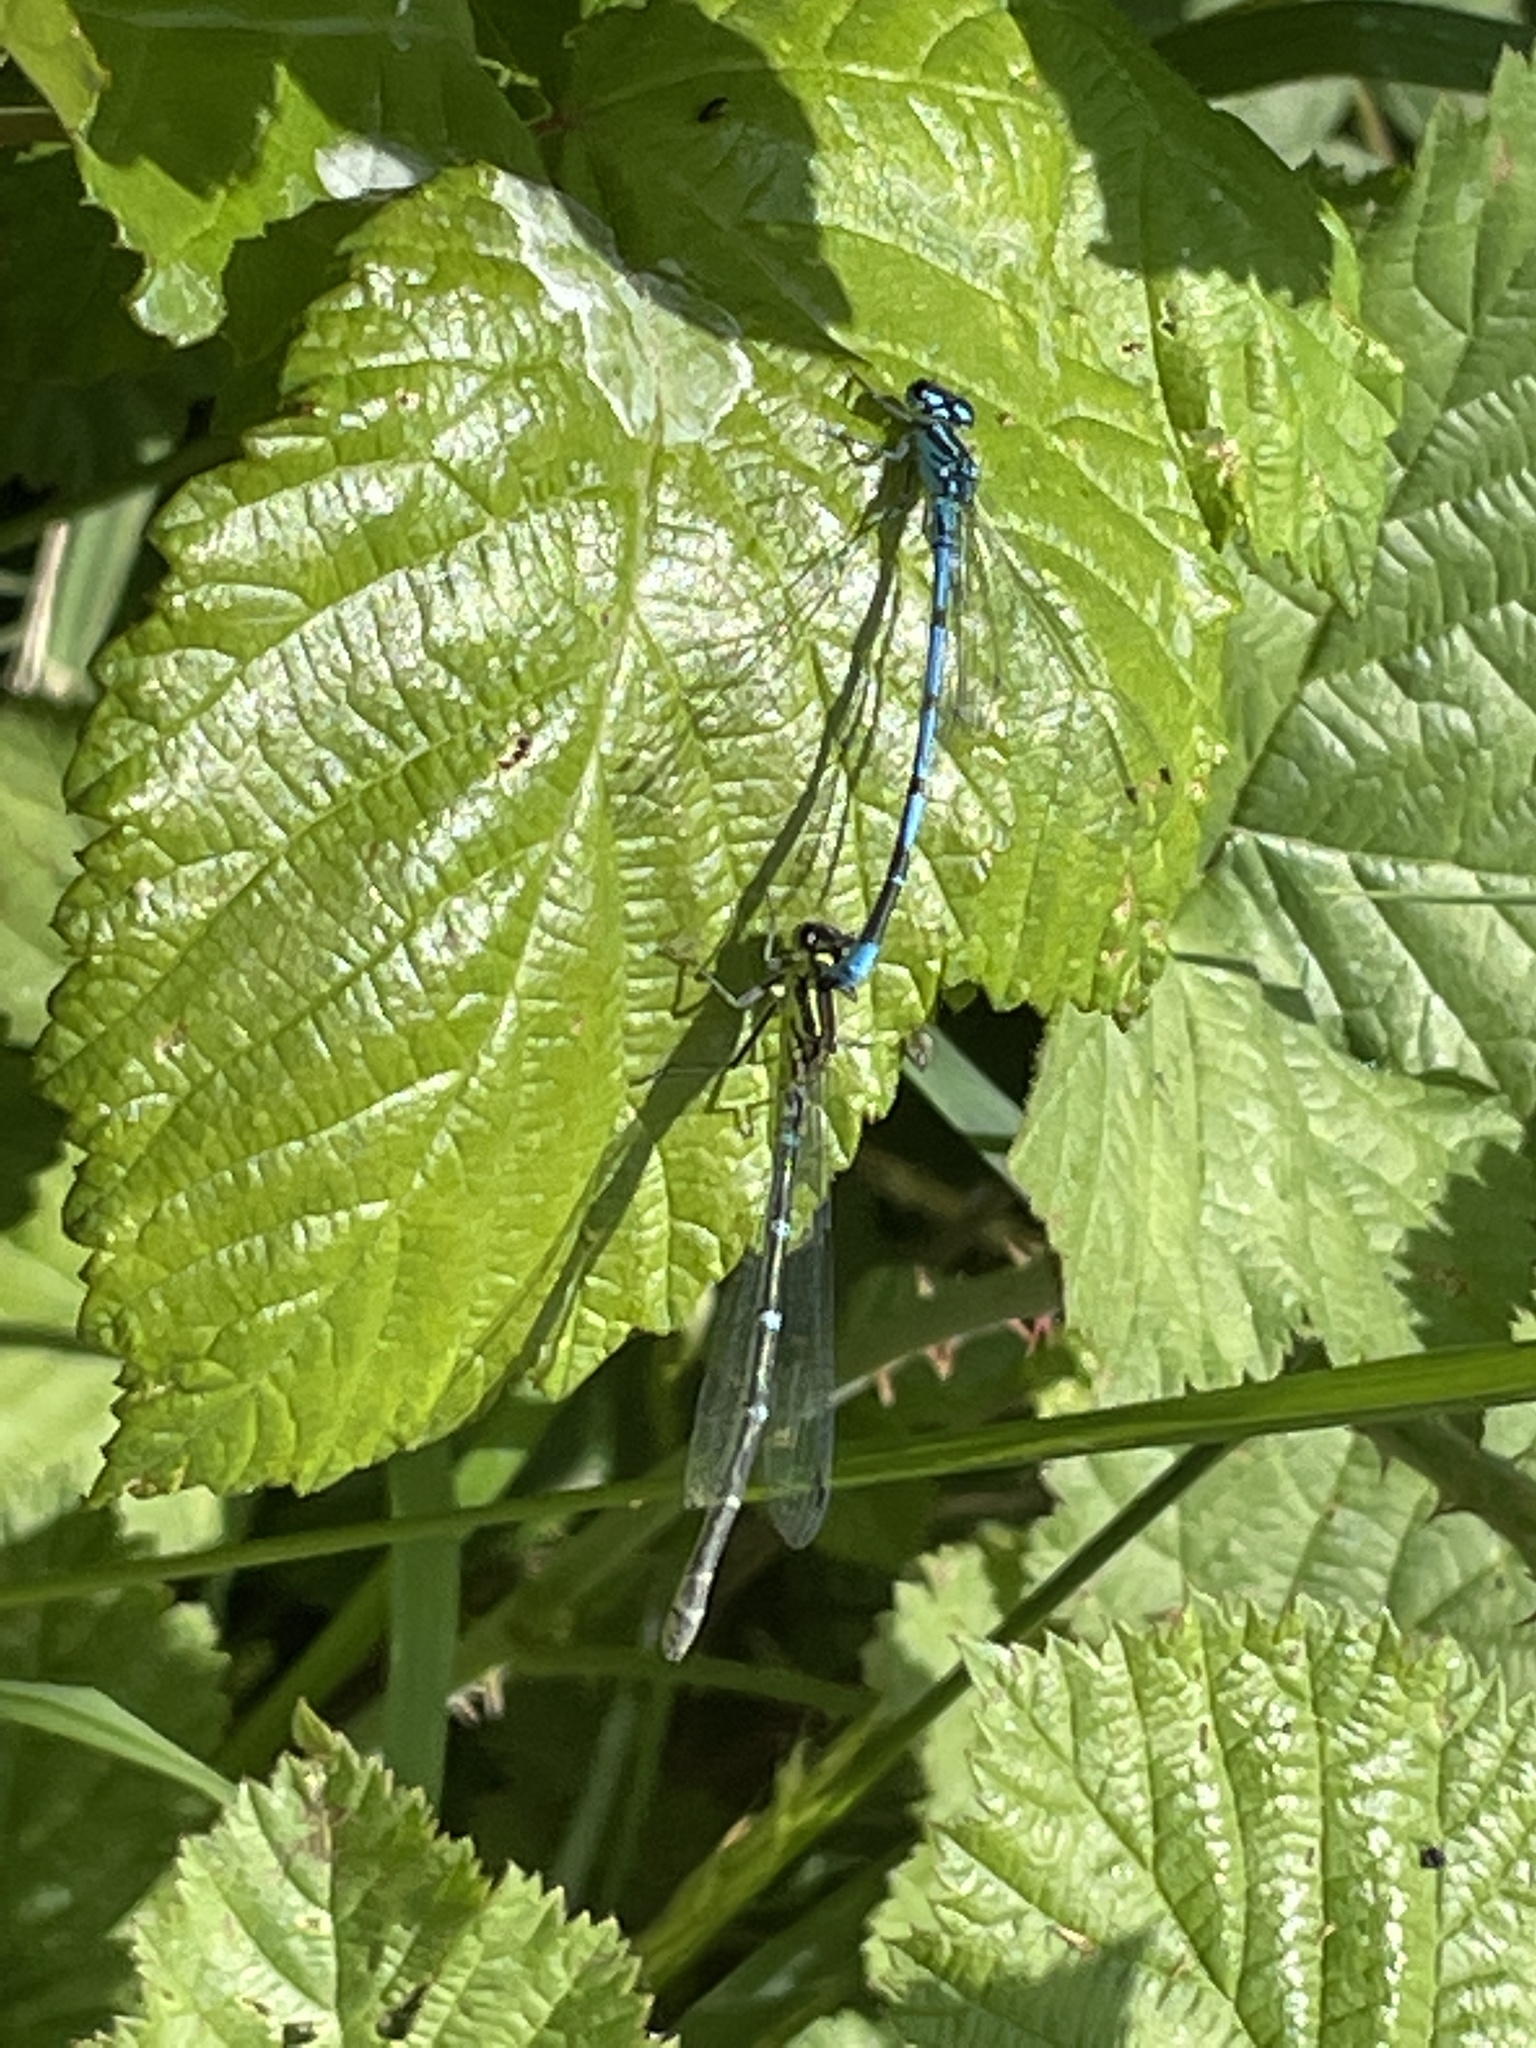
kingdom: Animalia
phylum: Arthropoda
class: Insecta
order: Odonata
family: Coenagrionidae
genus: Coenagrion
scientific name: Coenagrion puella
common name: Azure damselfly
